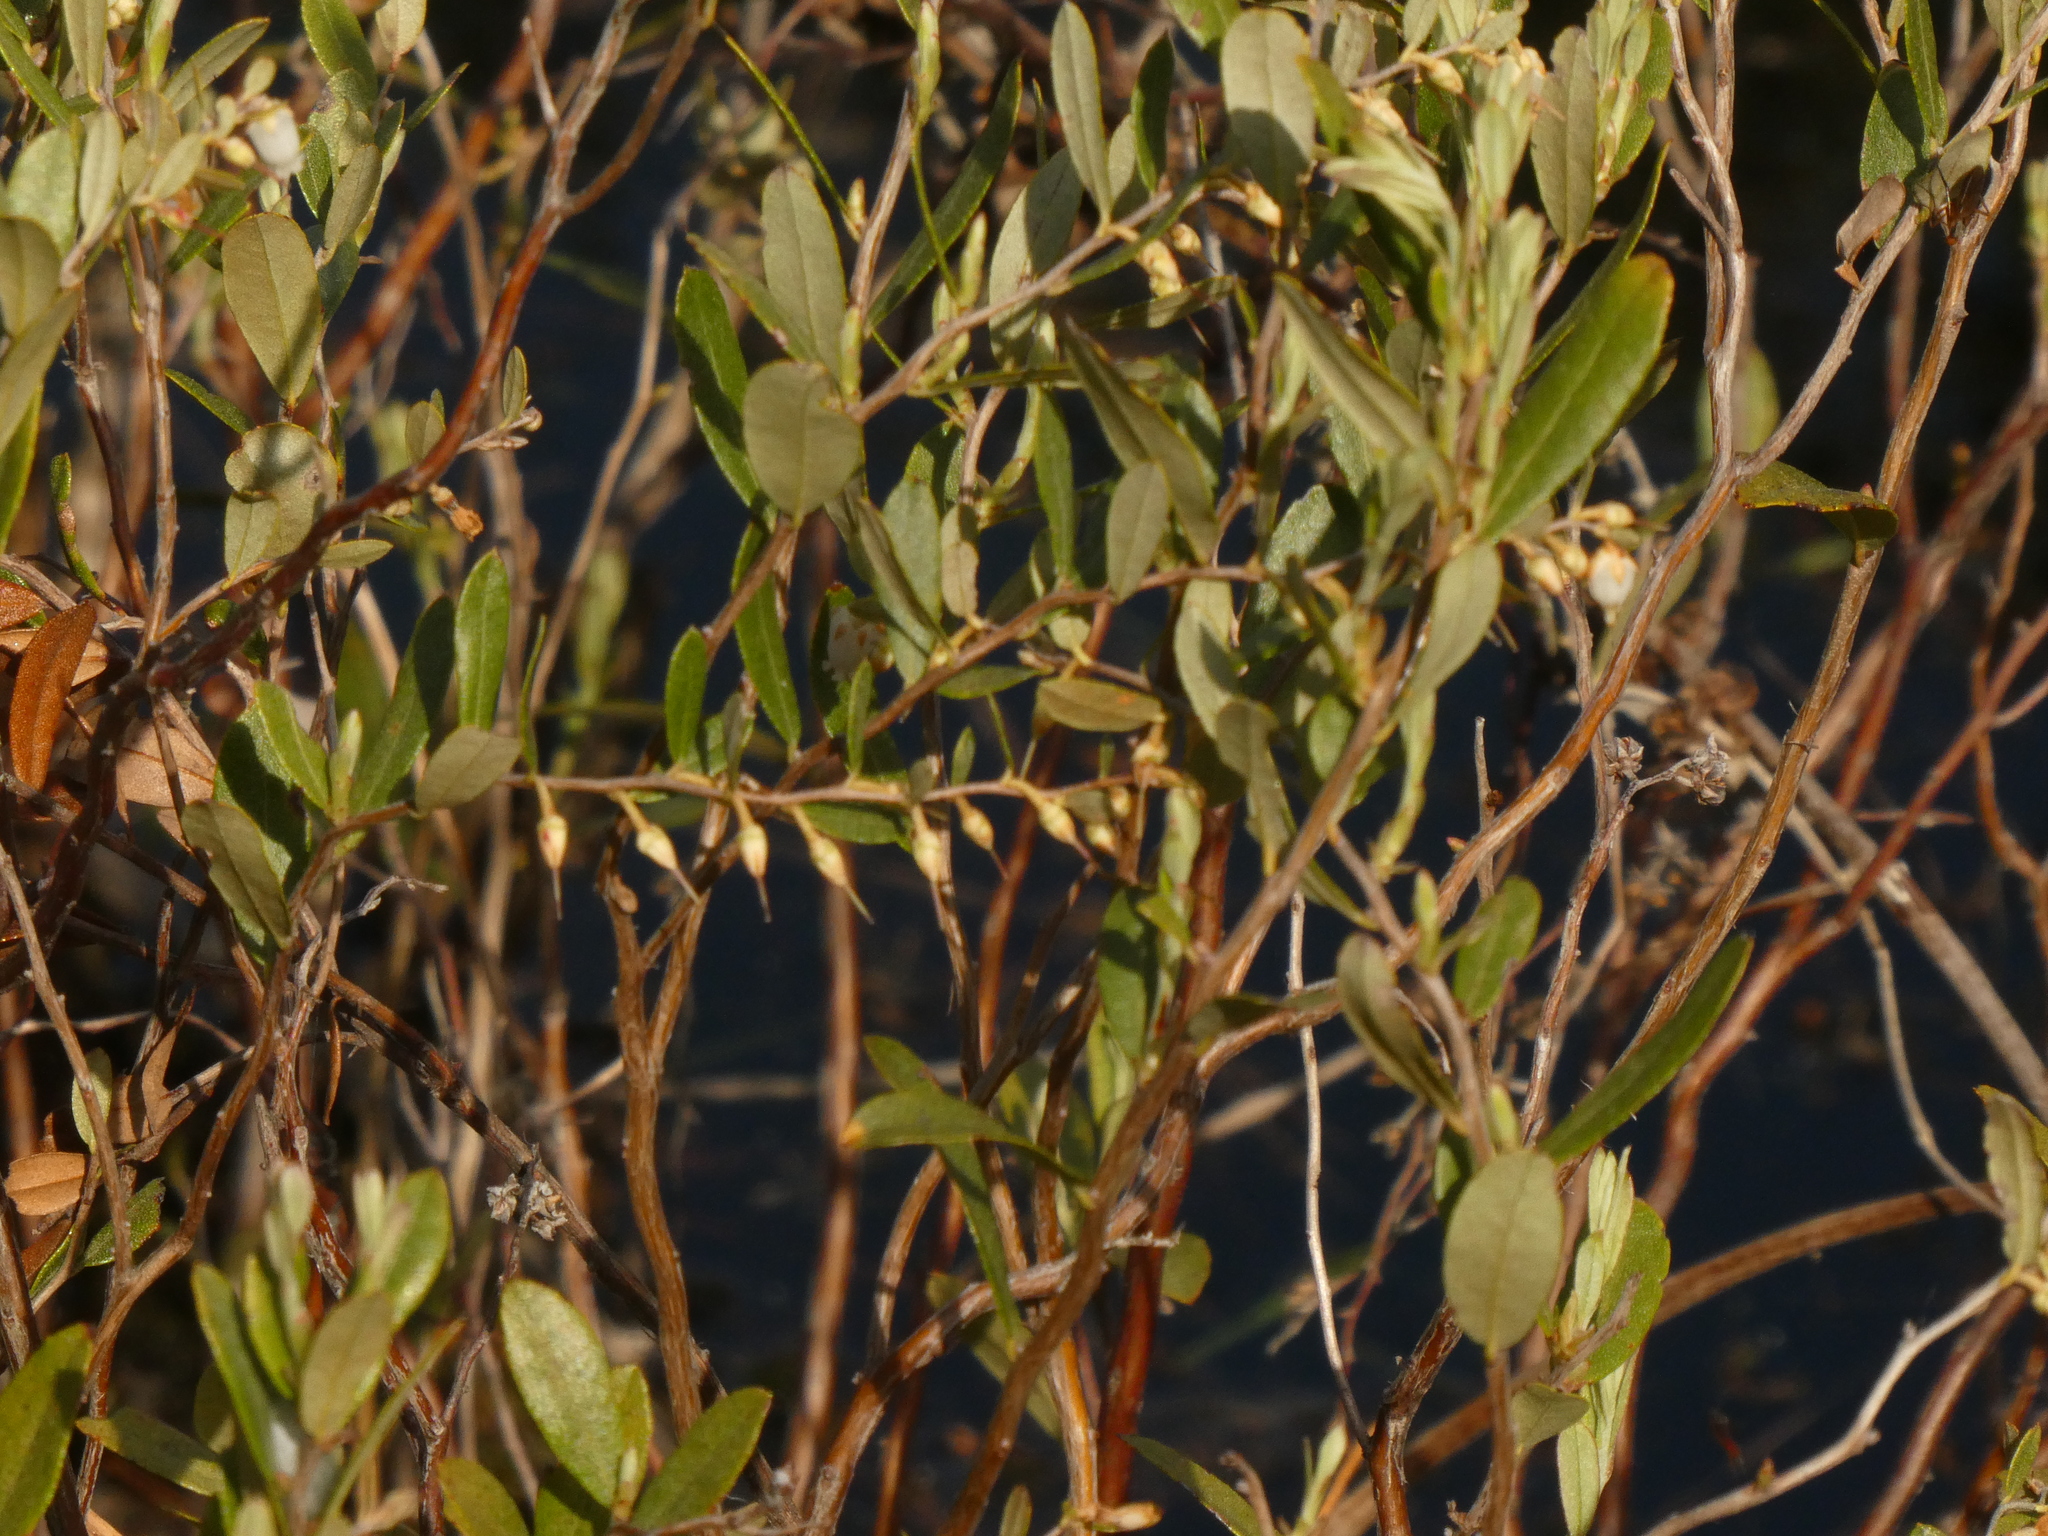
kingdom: Plantae
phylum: Tracheophyta
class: Magnoliopsida
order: Ericales
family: Ericaceae
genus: Chamaedaphne
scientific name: Chamaedaphne calyculata
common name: Leatherleaf
